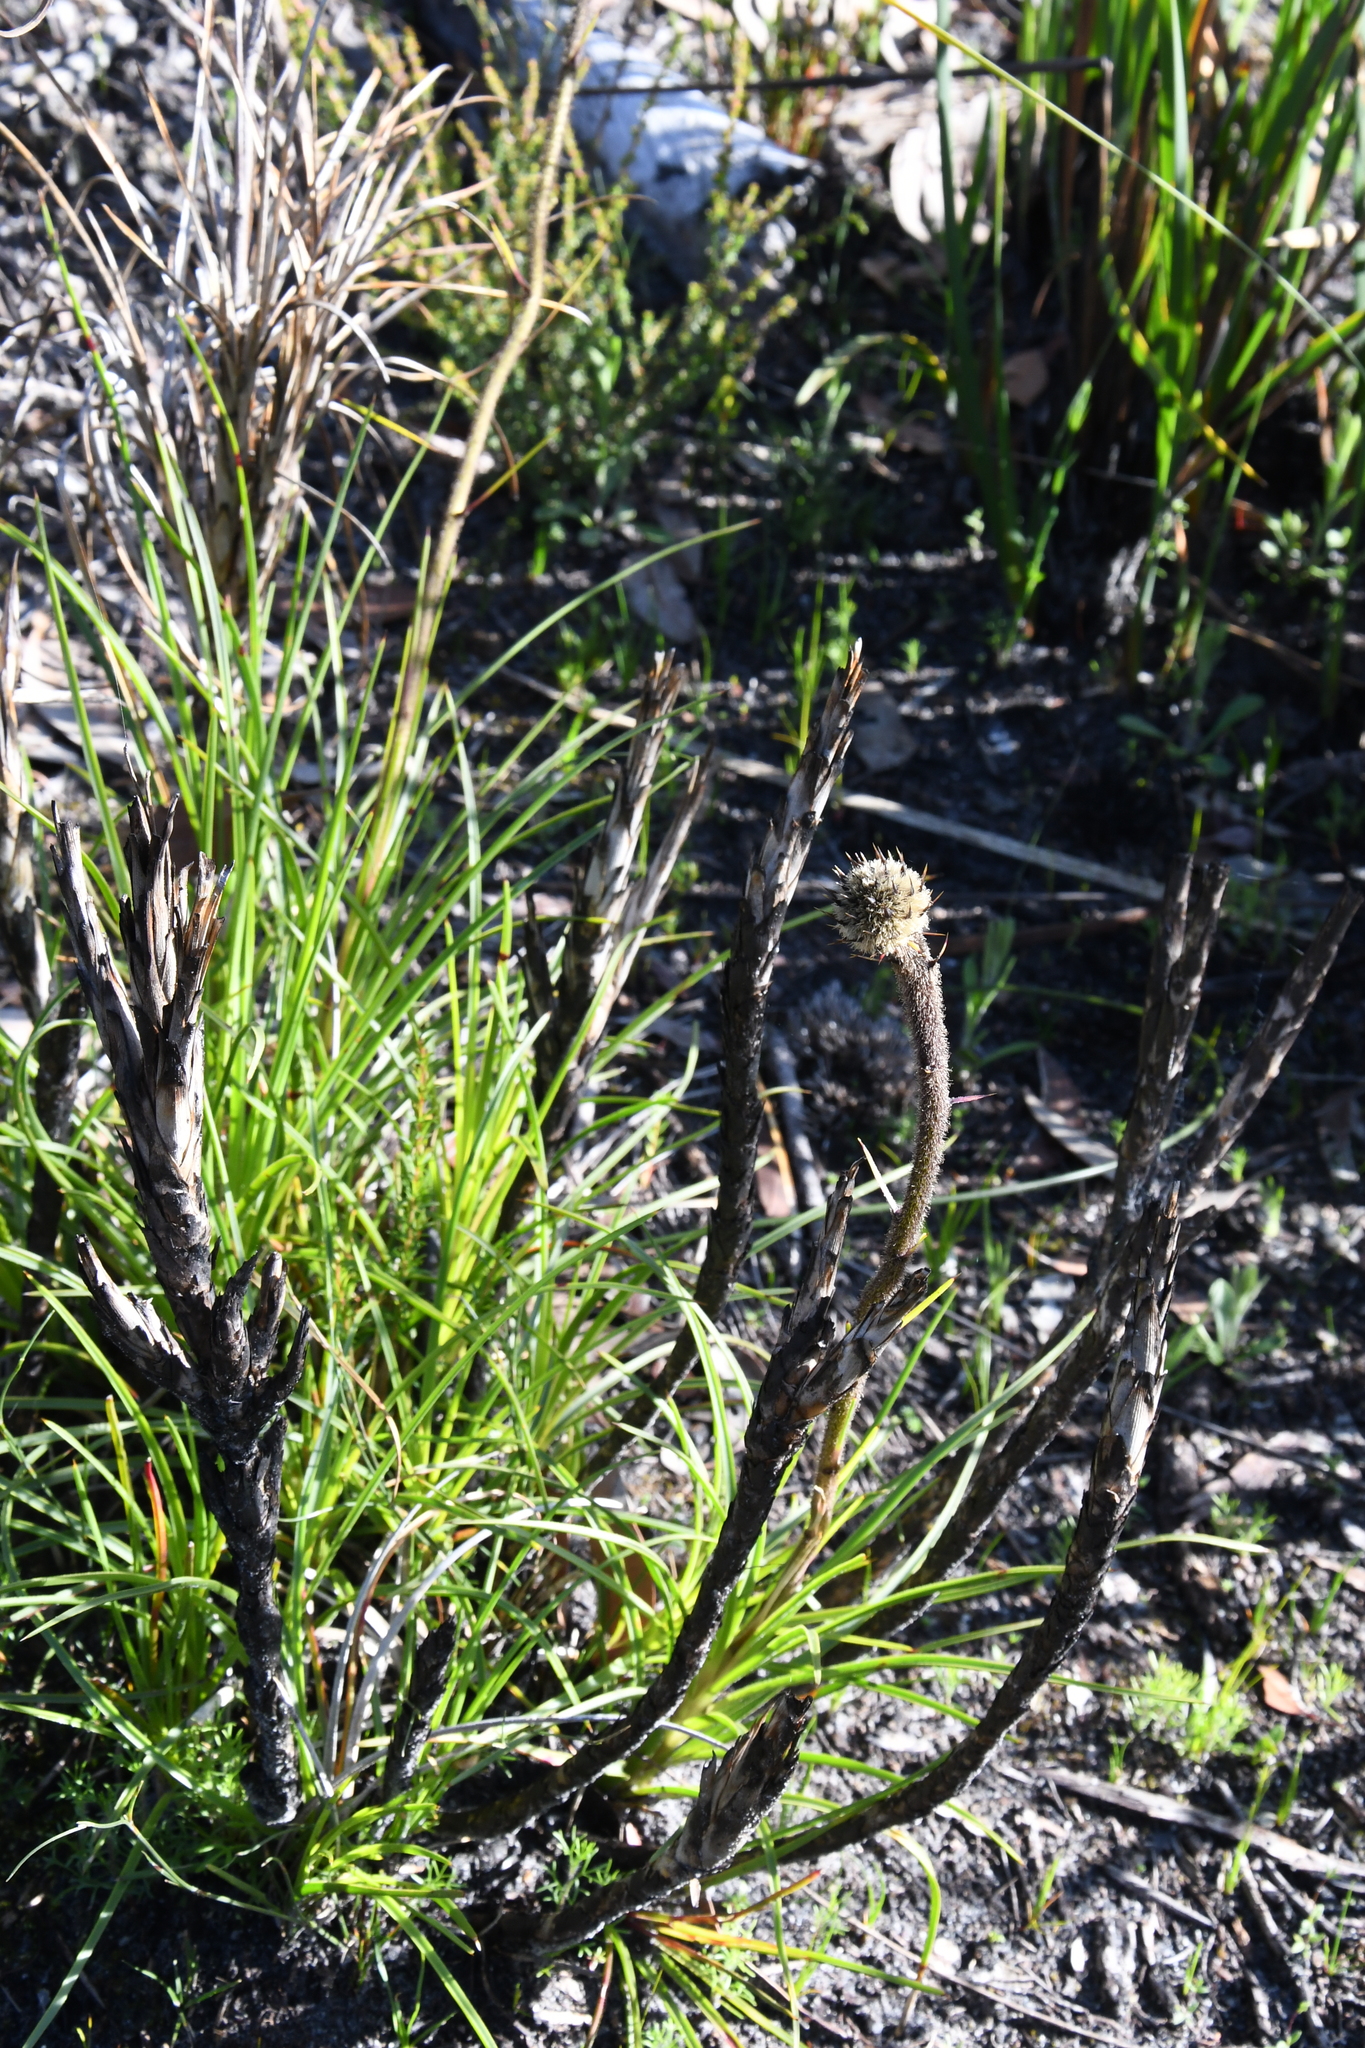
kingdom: Plantae
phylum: Tracheophyta
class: Liliopsida
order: Arecales
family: Dasypogonaceae
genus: Dasypogon
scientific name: Dasypogon bromeliifolius
